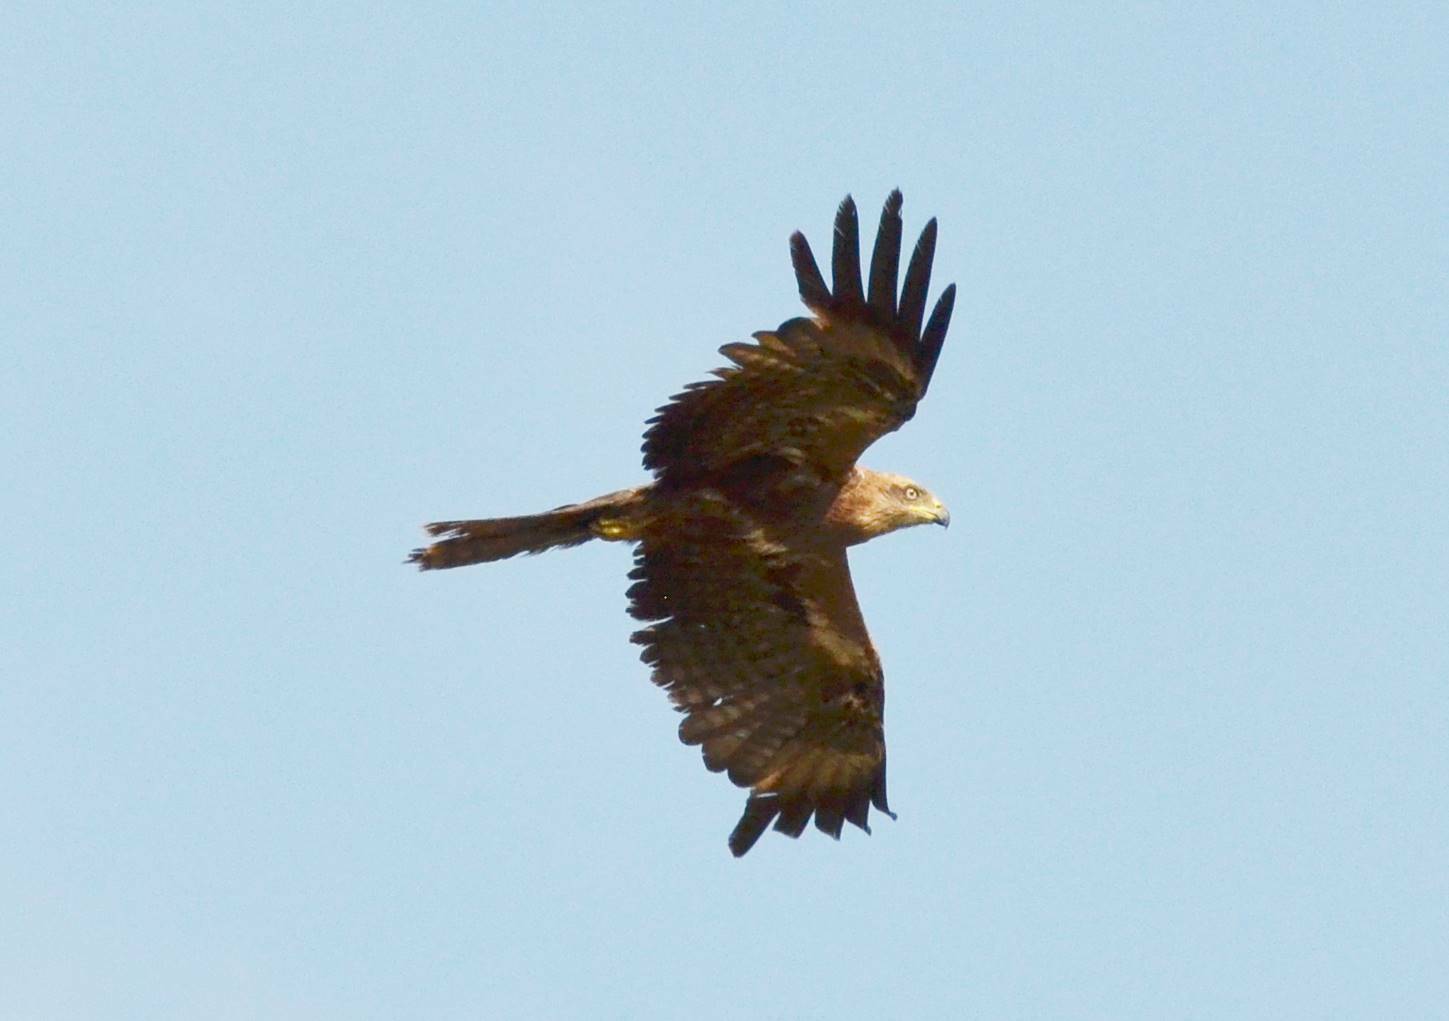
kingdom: Animalia
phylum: Chordata
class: Aves
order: Accipitriformes
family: Accipitridae
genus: Milvus
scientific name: Milvus migrans
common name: Black kite
